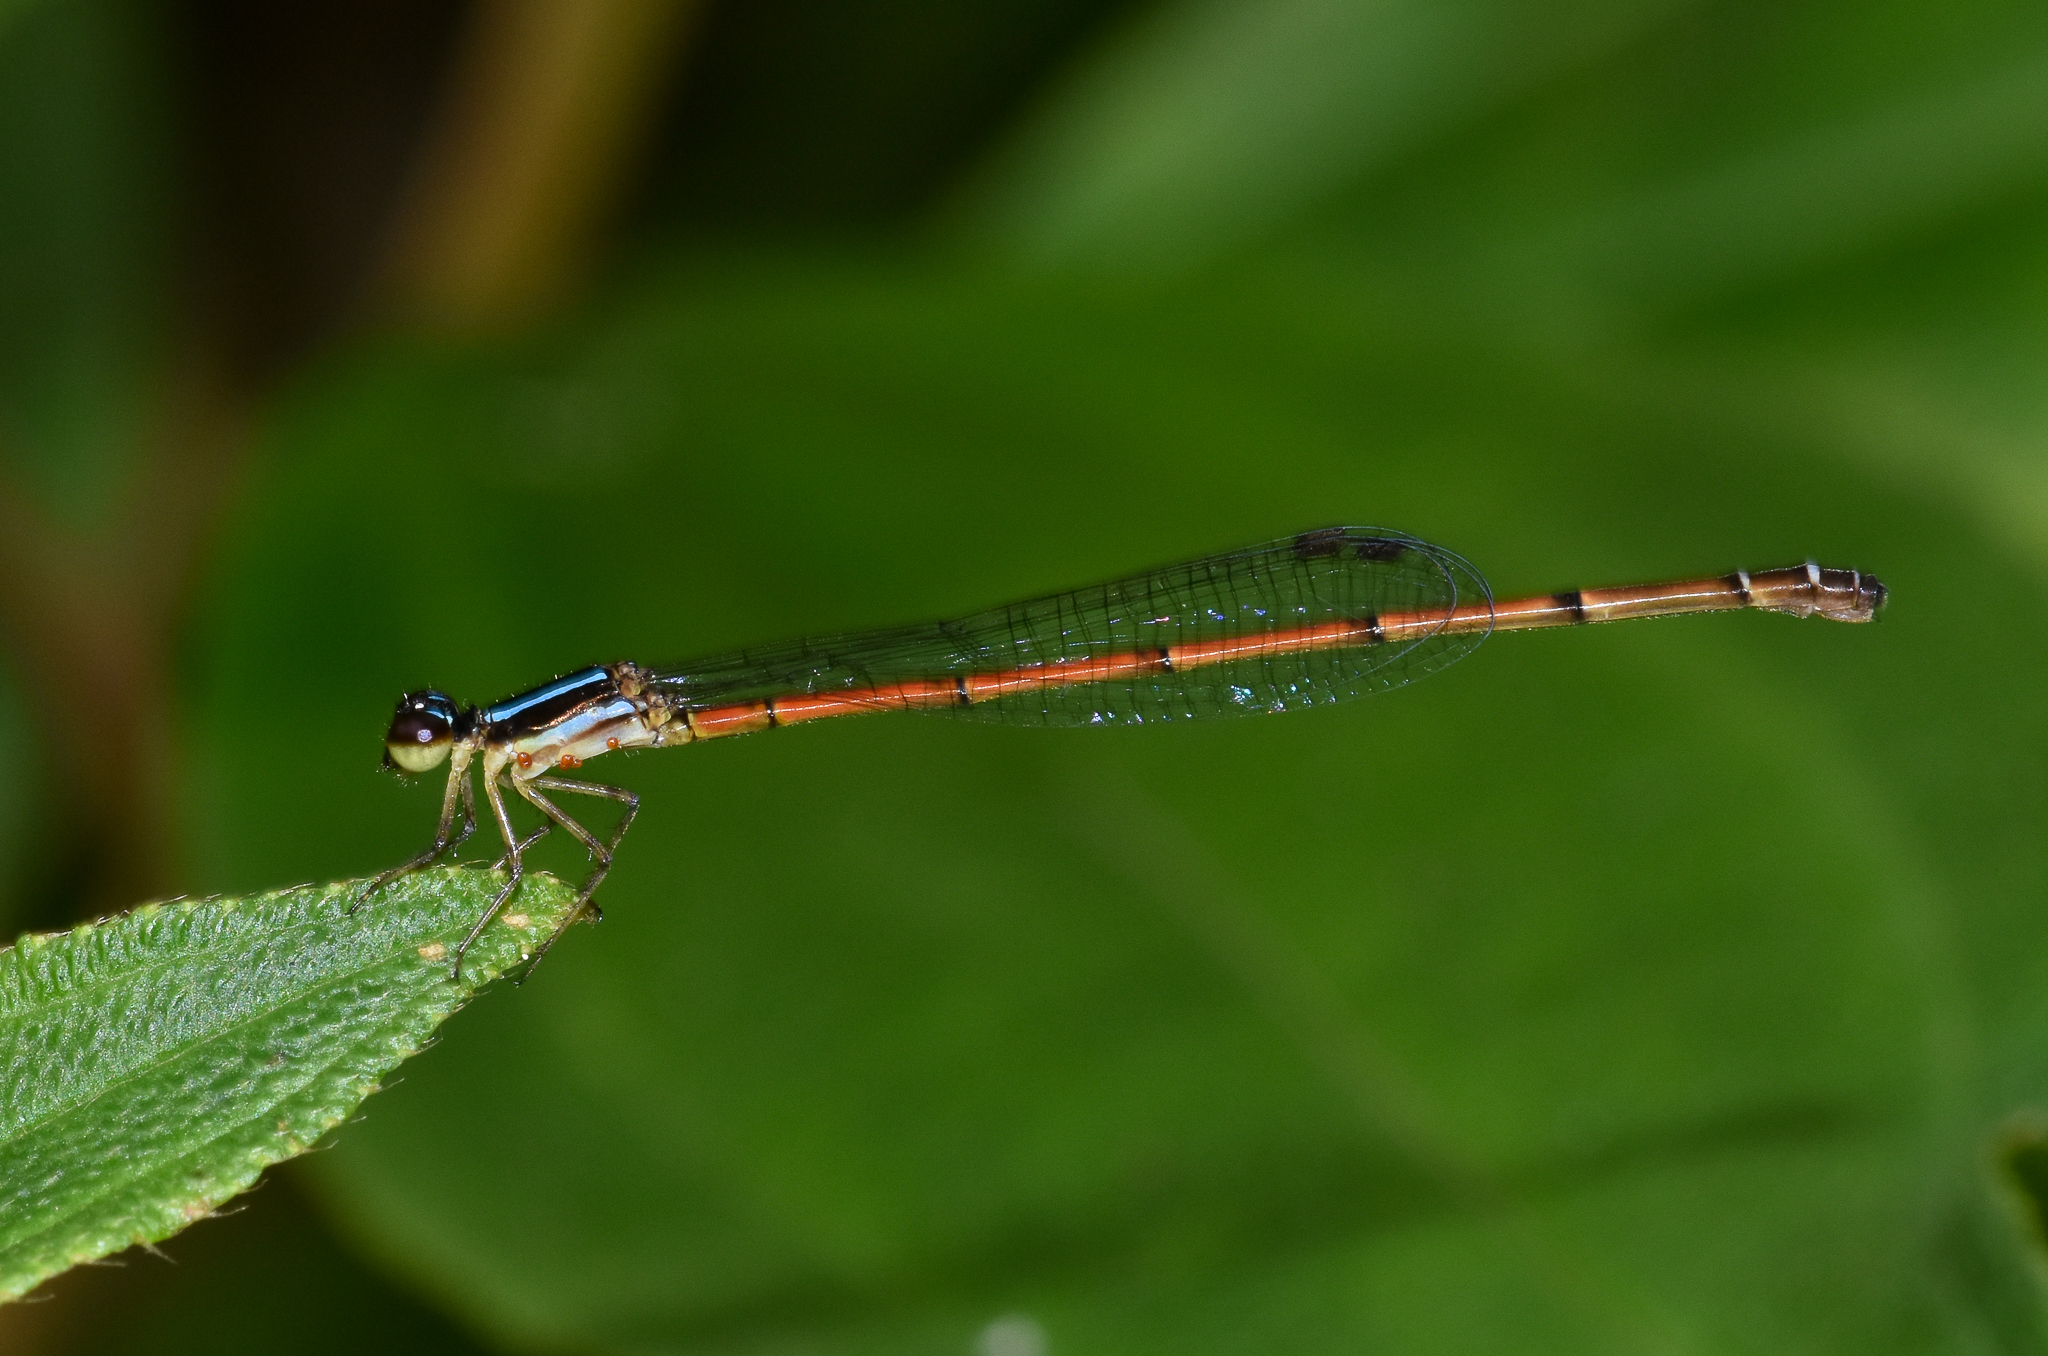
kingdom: Animalia
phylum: Arthropoda
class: Insecta
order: Odonata
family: Coenagrionidae
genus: Mortonagrion
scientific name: Mortonagrion aborense
